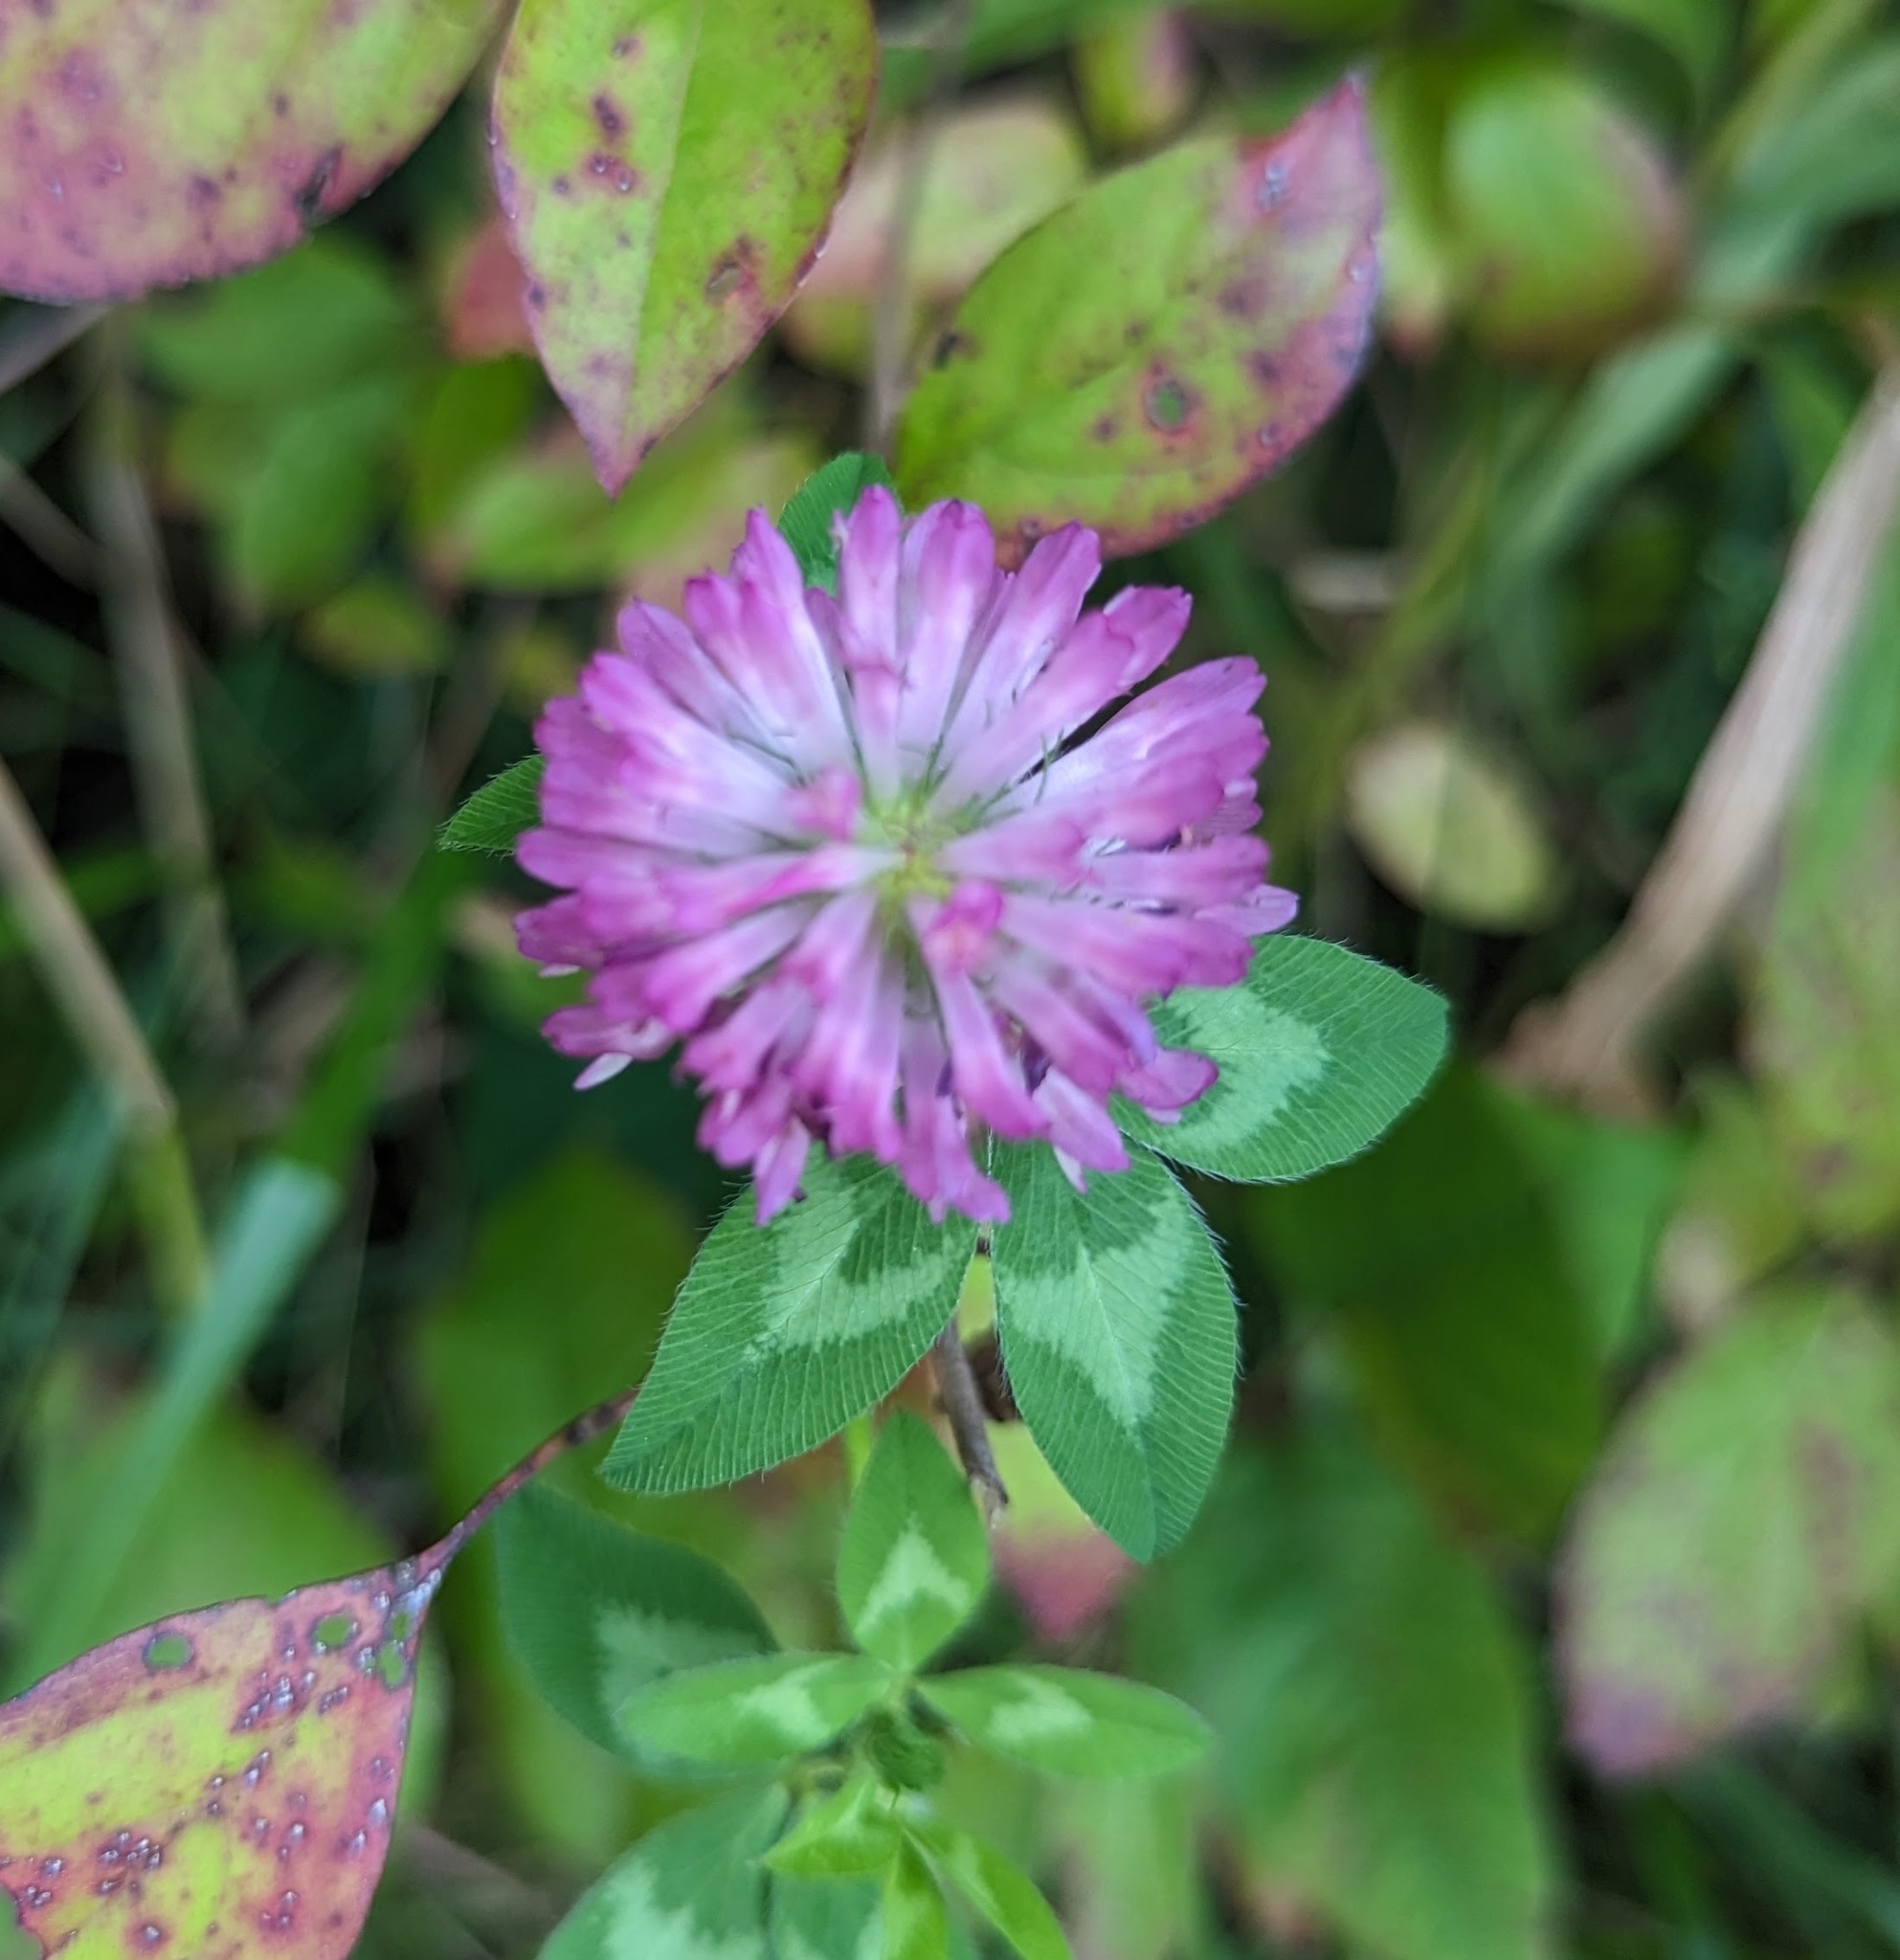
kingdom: Plantae
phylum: Tracheophyta
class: Magnoliopsida
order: Fabales
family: Fabaceae
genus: Trifolium
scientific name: Trifolium pratense
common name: Red clover
